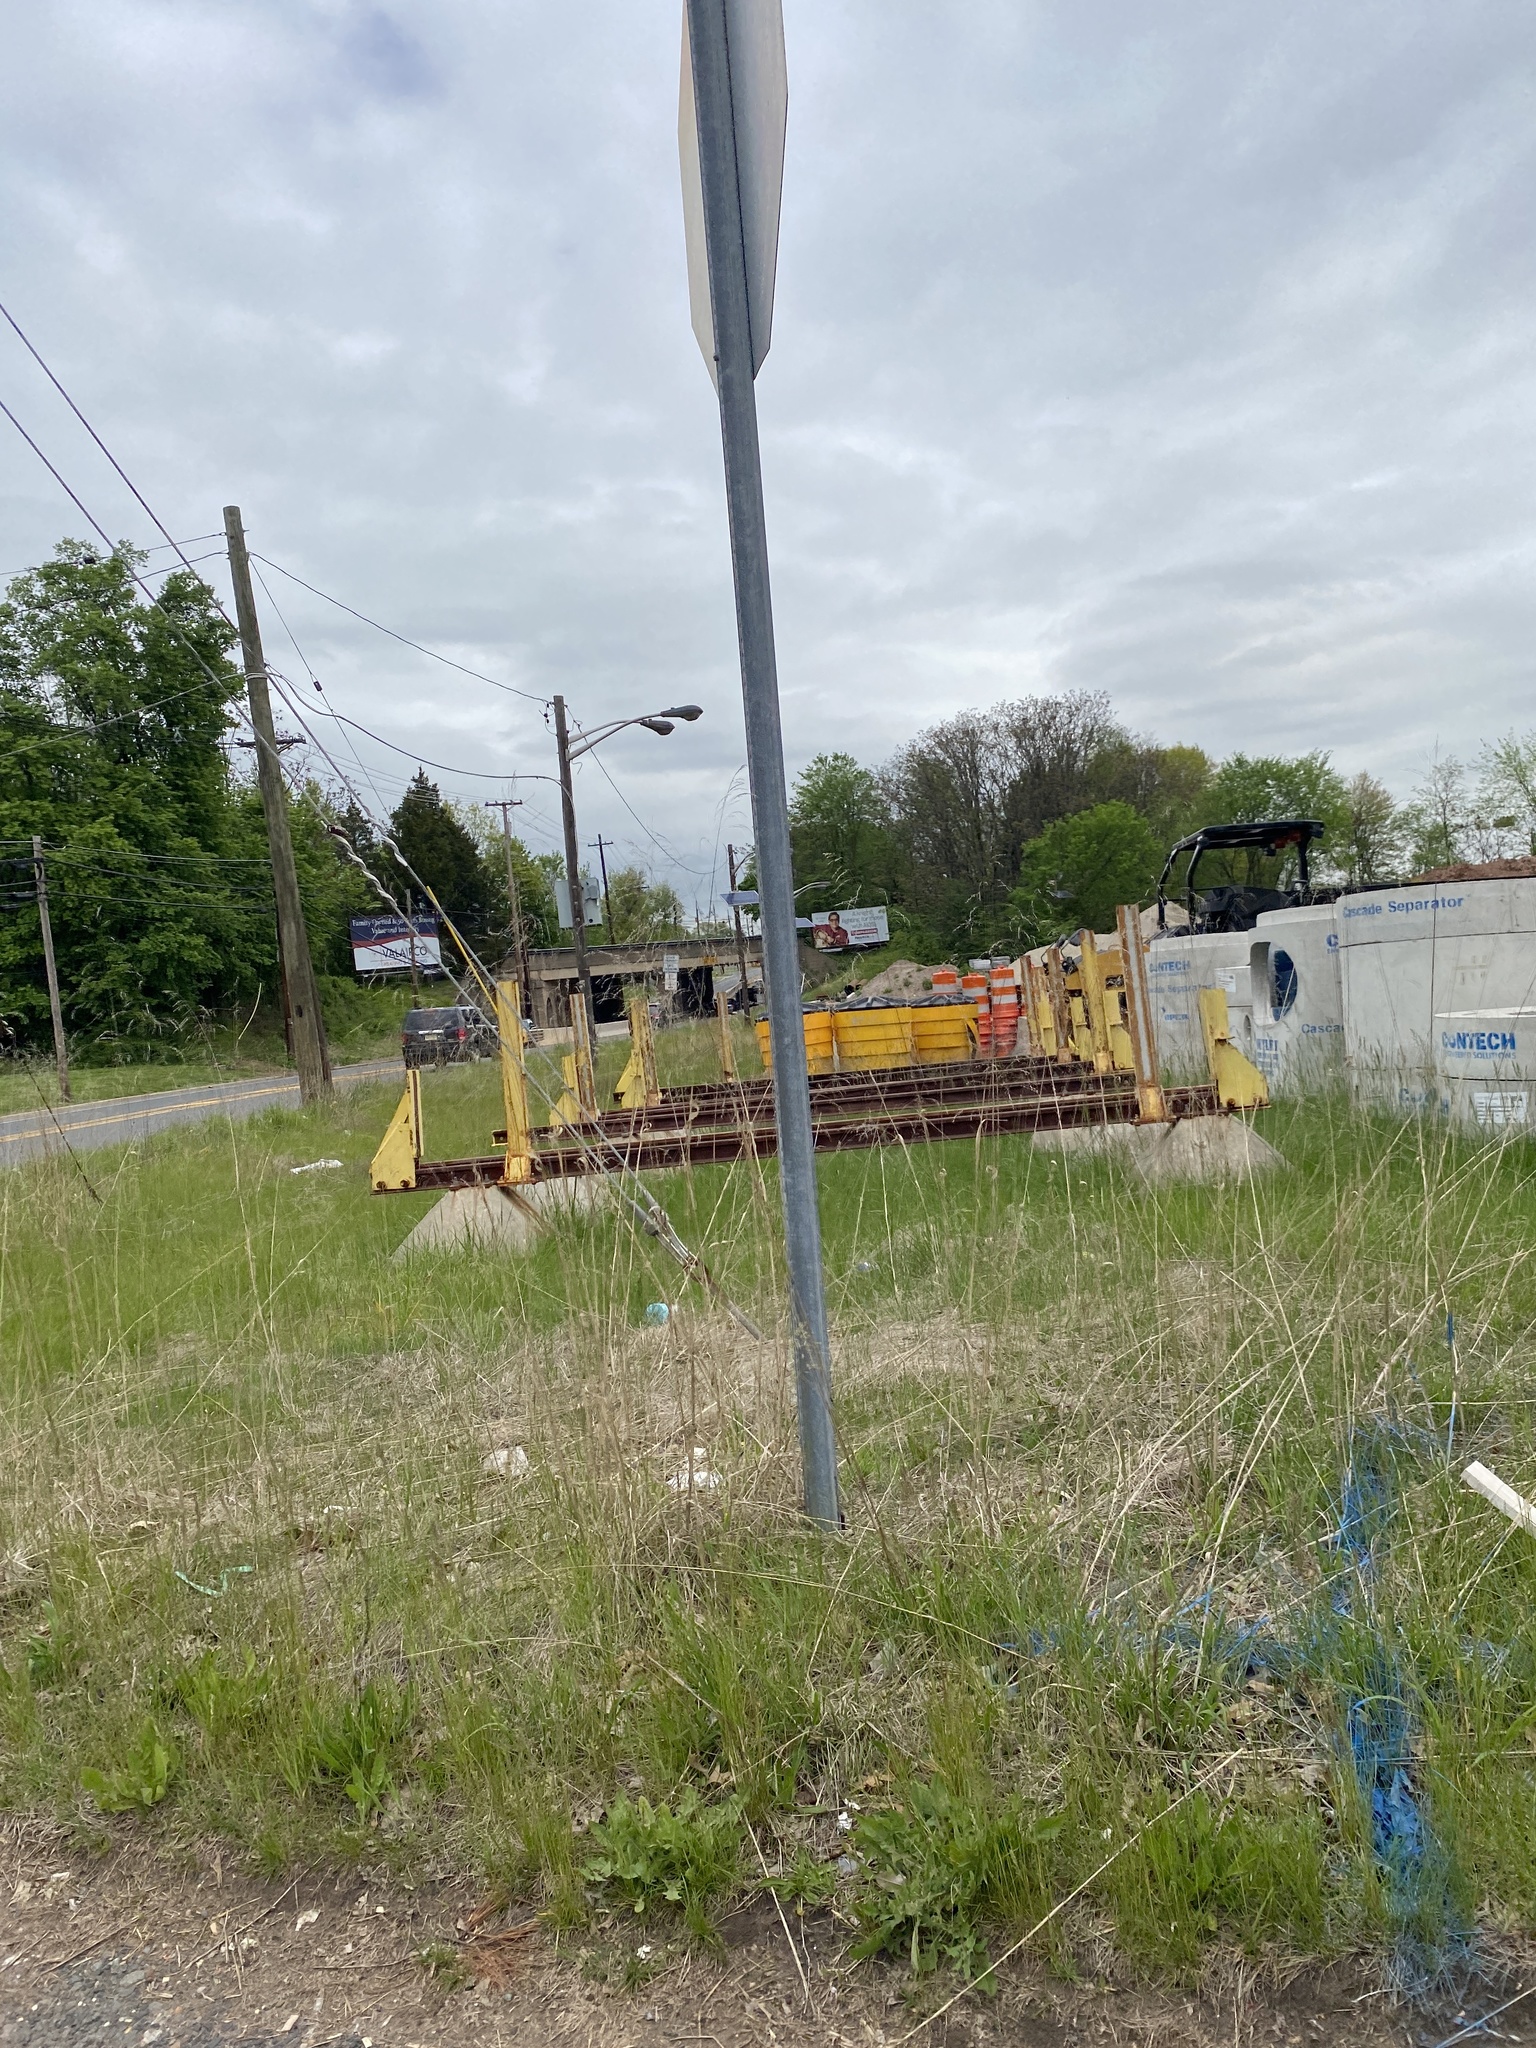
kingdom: Plantae
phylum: Tracheophyta
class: Liliopsida
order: Poales
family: Poaceae
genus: Tridens
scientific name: Tridens flavus
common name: Purpletop
